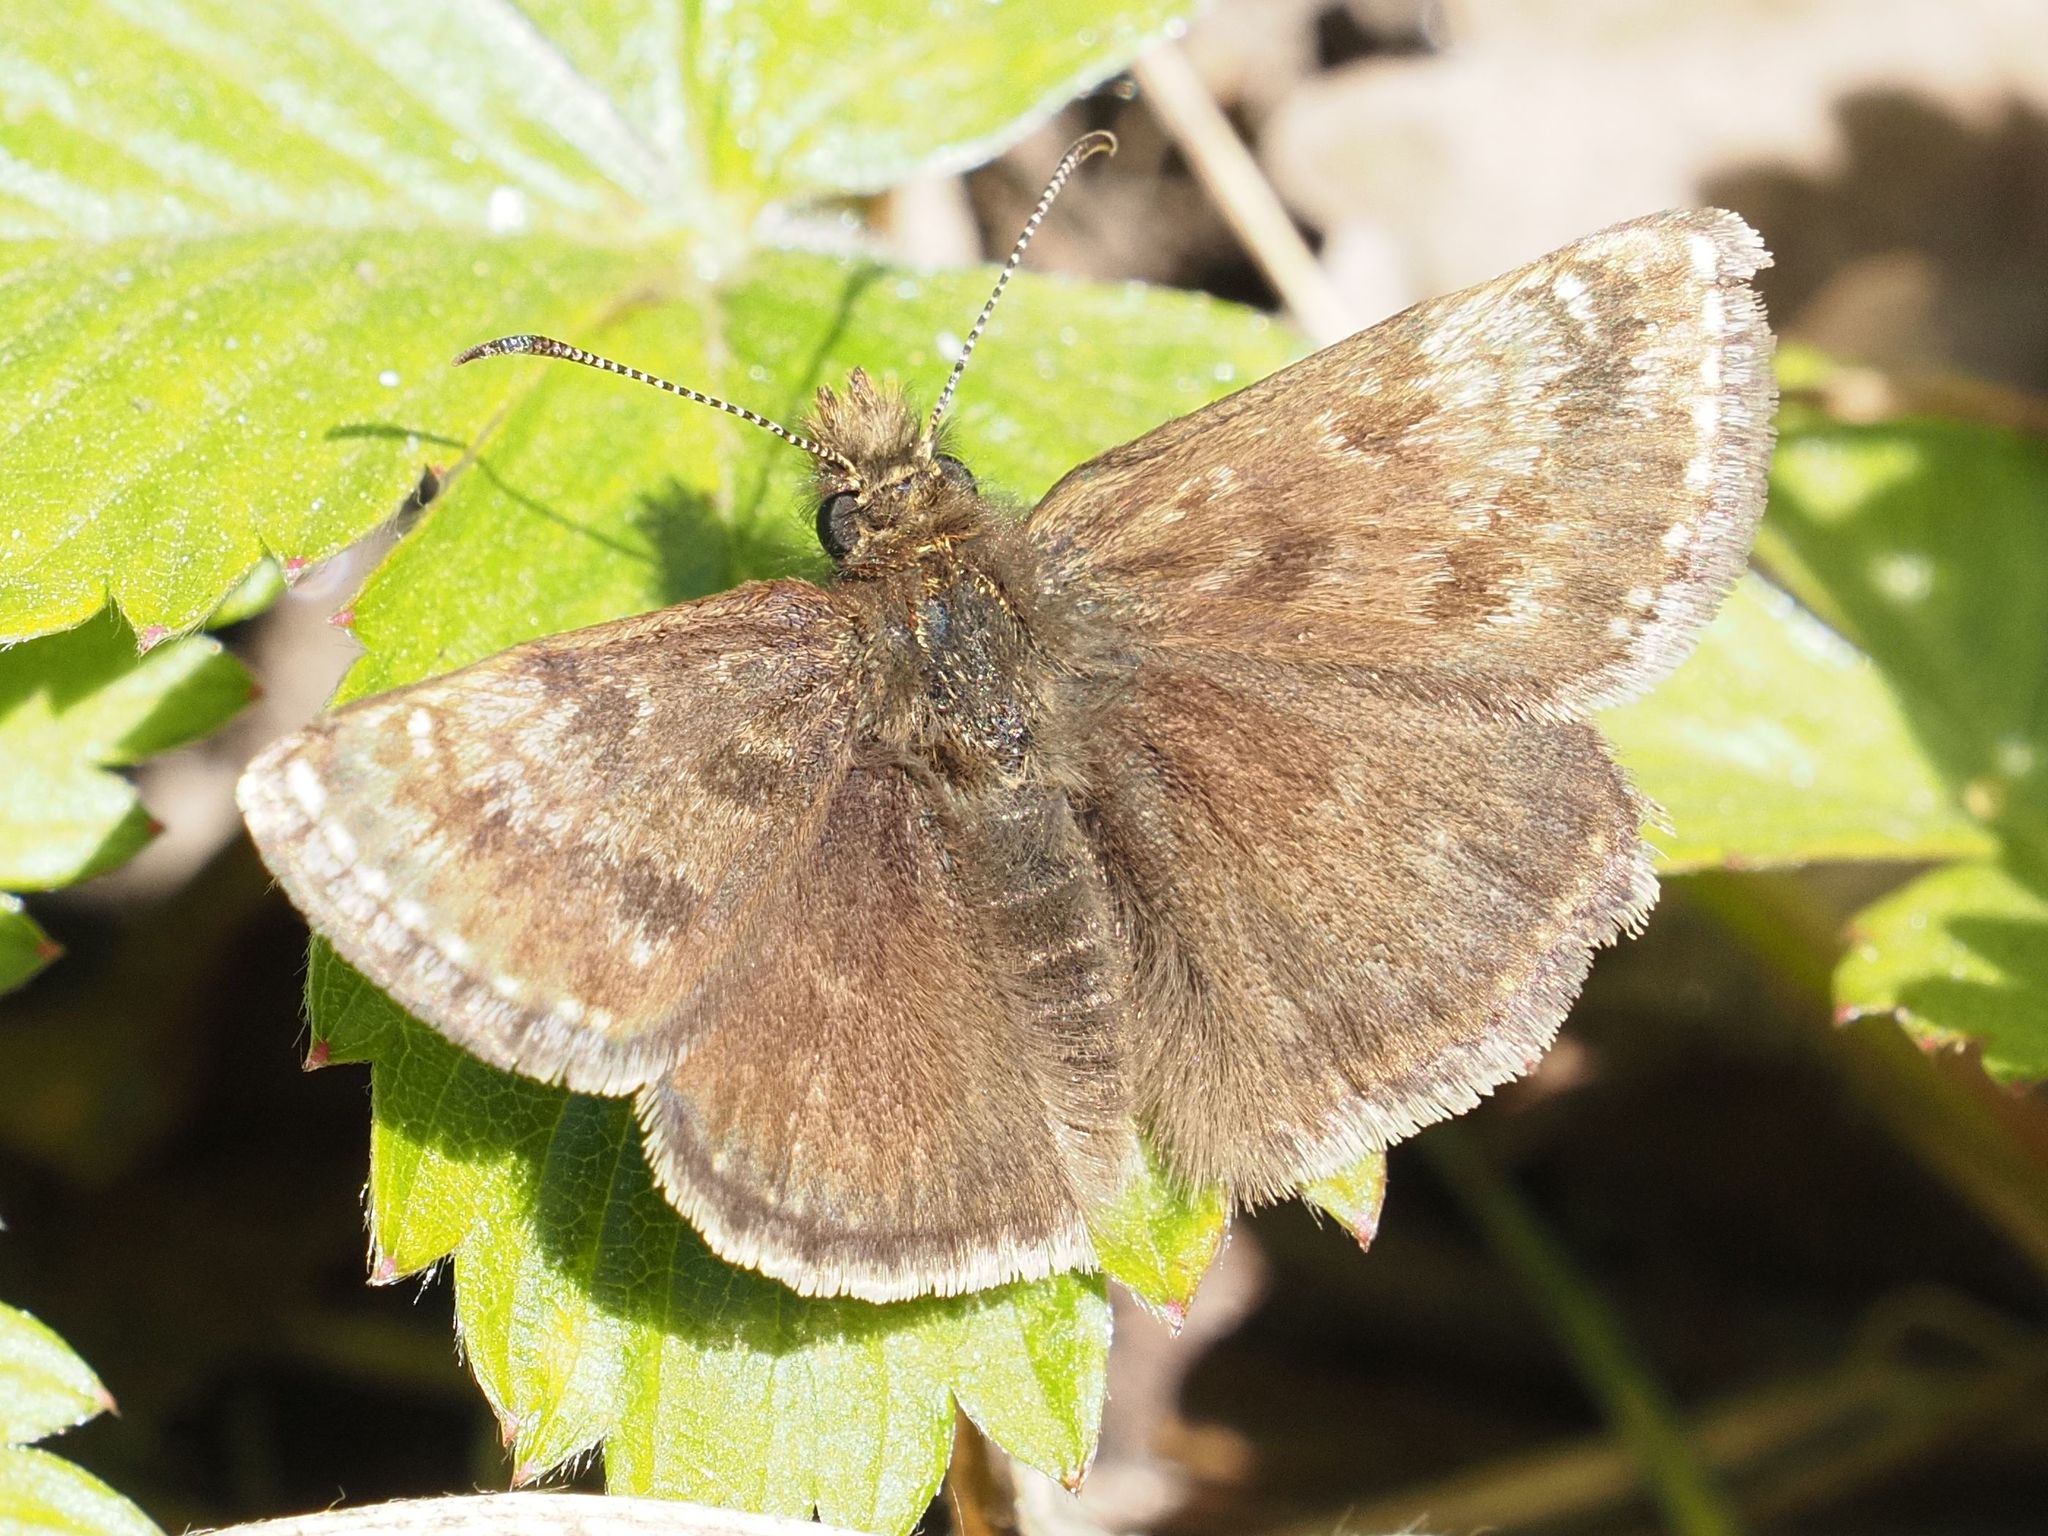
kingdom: Animalia
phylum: Arthropoda
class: Insecta
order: Lepidoptera
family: Hesperiidae
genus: Erynnis
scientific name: Erynnis tages
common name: Dingy skipper
